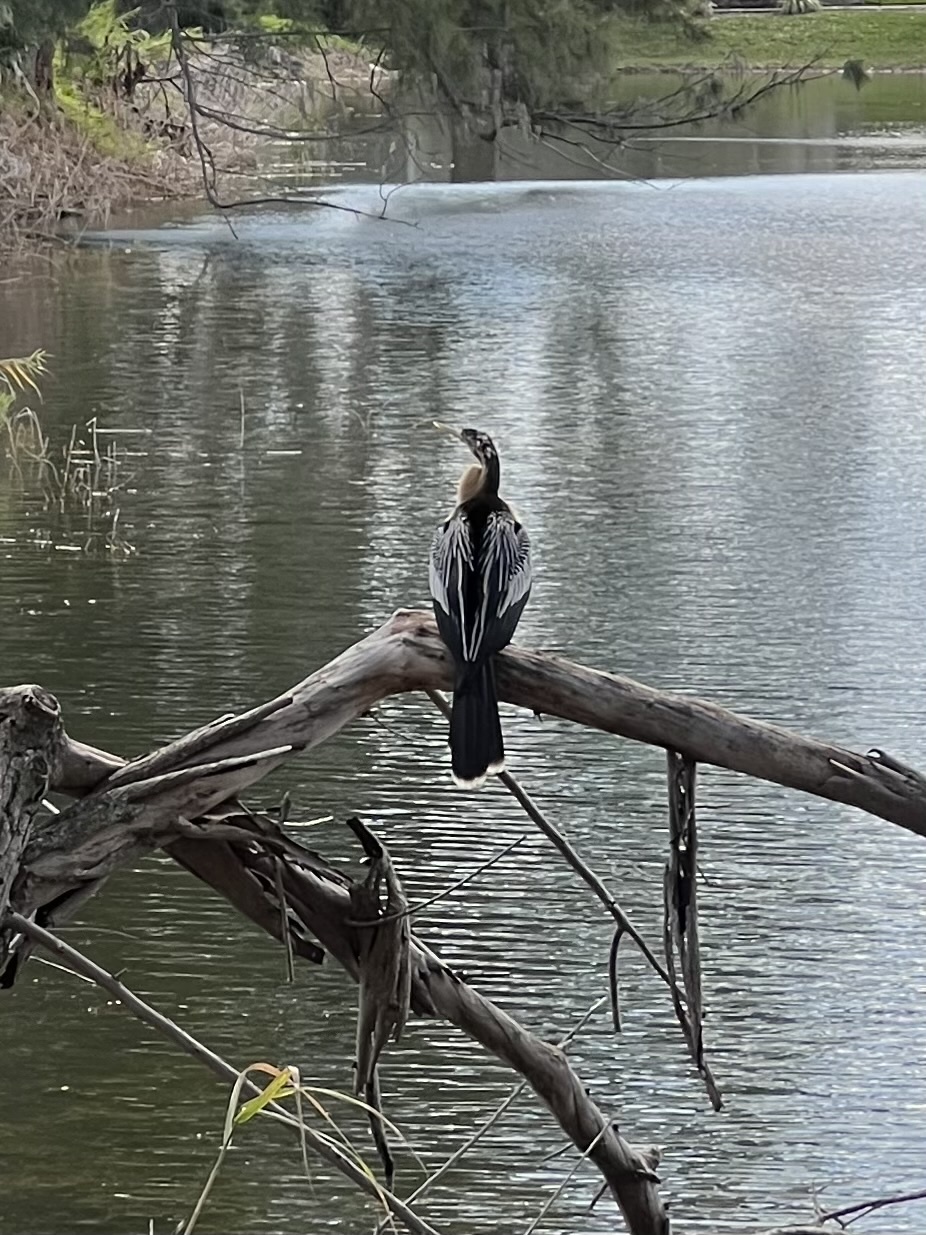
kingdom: Animalia
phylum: Chordata
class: Aves
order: Suliformes
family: Anhingidae
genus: Anhinga
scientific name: Anhinga anhinga
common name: Anhinga
